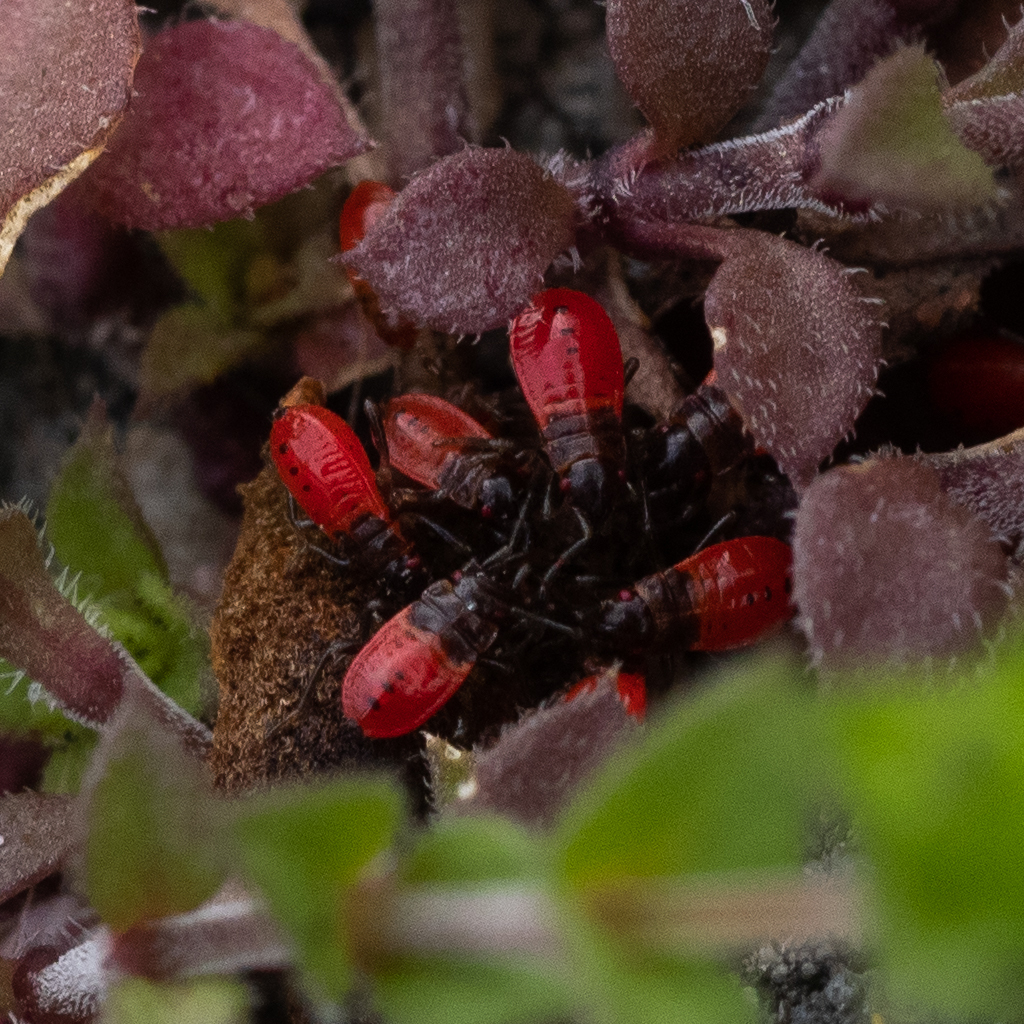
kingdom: Animalia
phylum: Arthropoda
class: Insecta
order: Hemiptera
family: Pyrrhocoridae
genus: Pyrrhocoris
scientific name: Pyrrhocoris apterus
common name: Firebug
